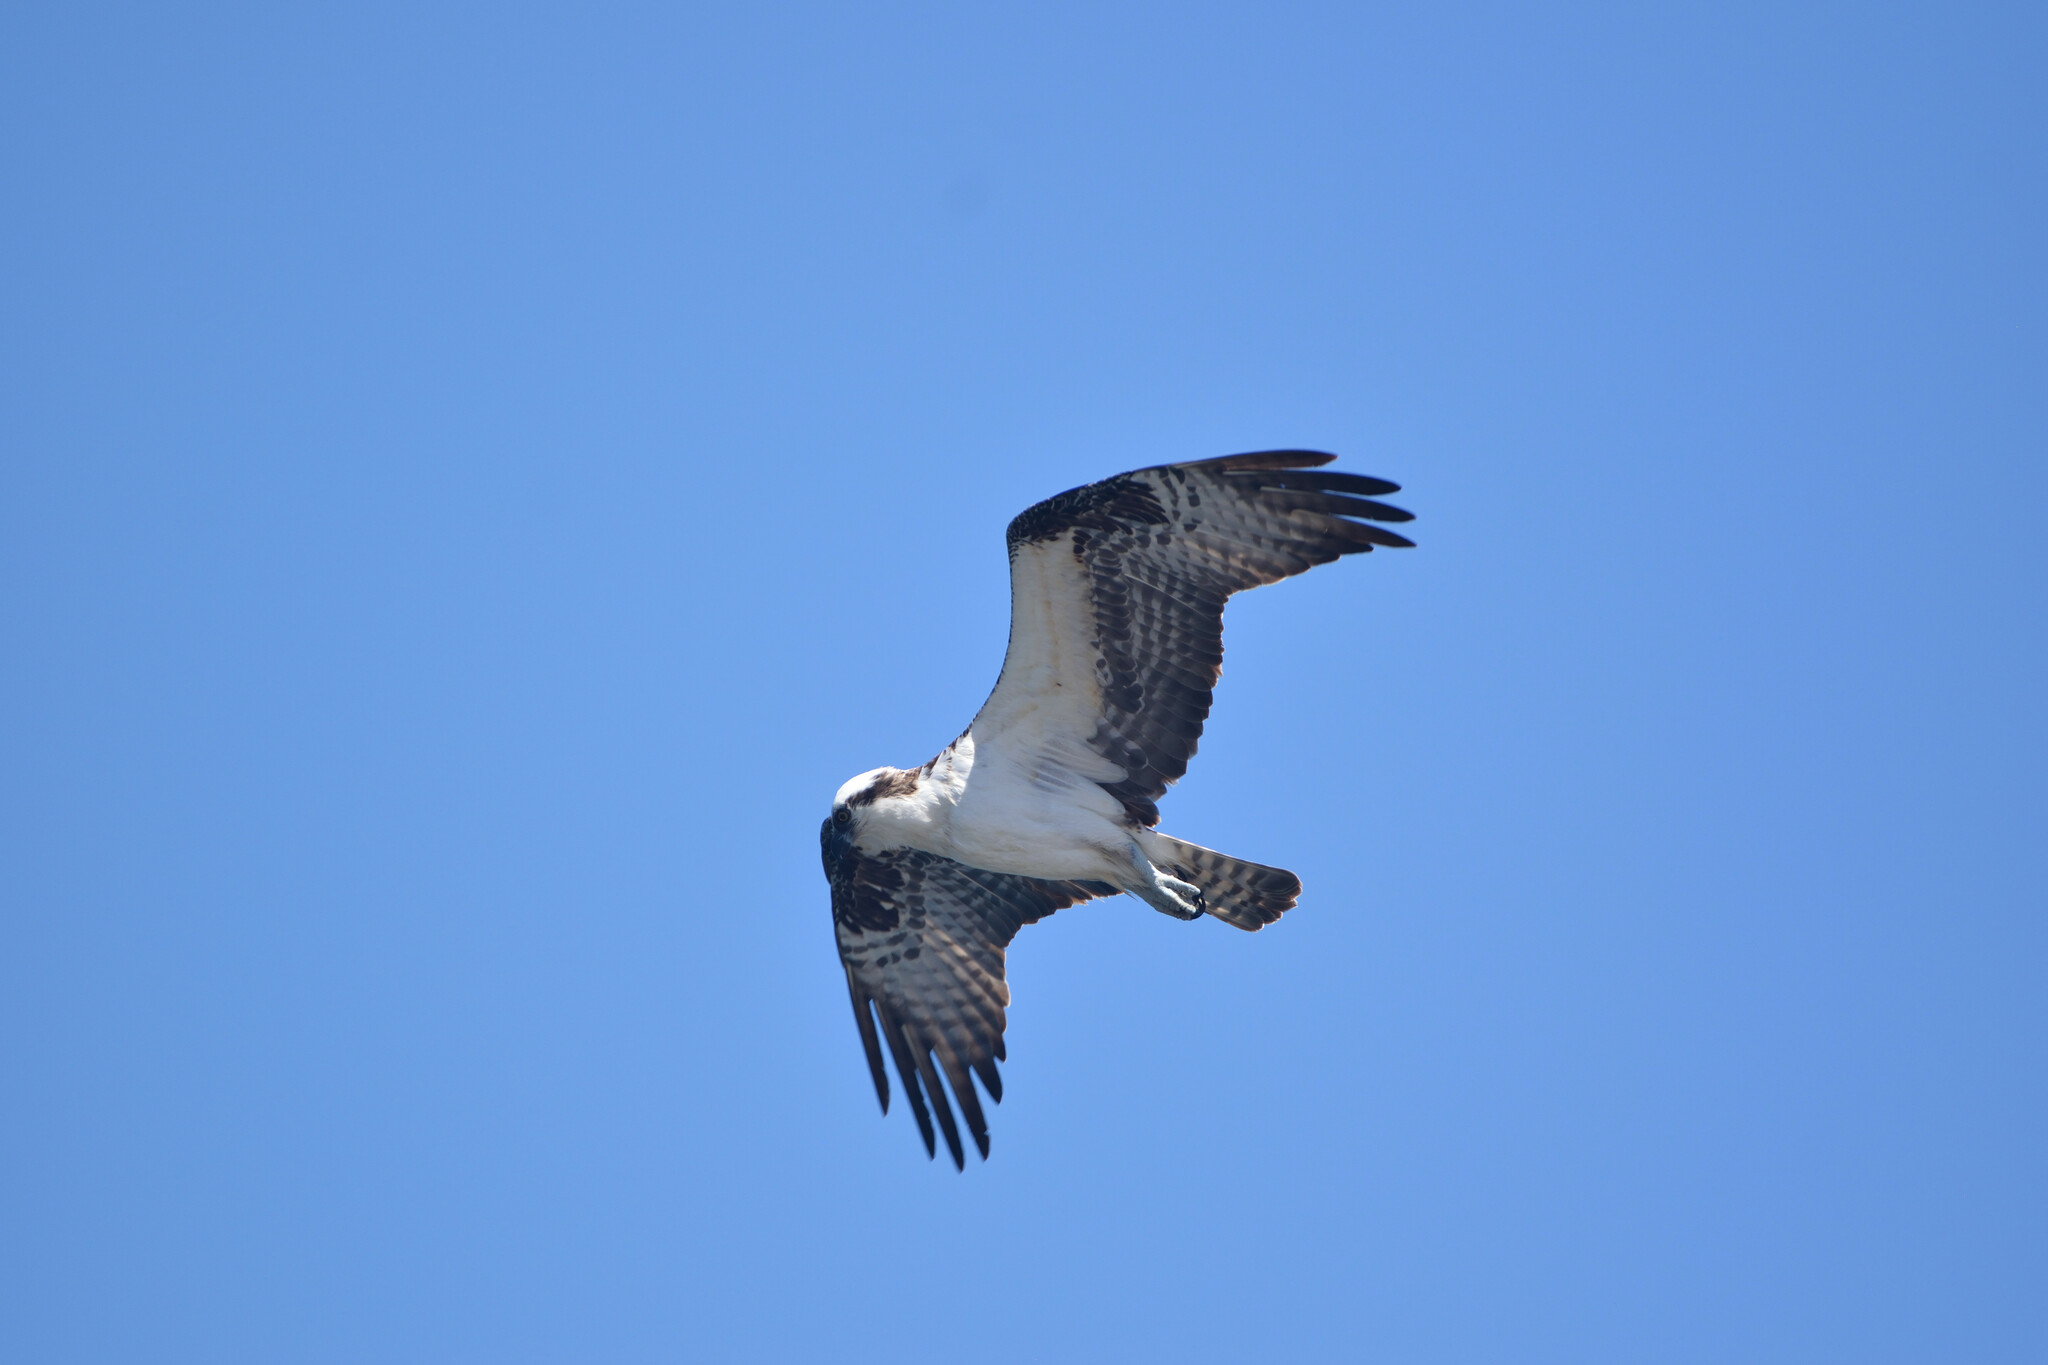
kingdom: Animalia
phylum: Chordata
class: Aves
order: Accipitriformes
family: Pandionidae
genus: Pandion
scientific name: Pandion haliaetus
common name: Osprey
